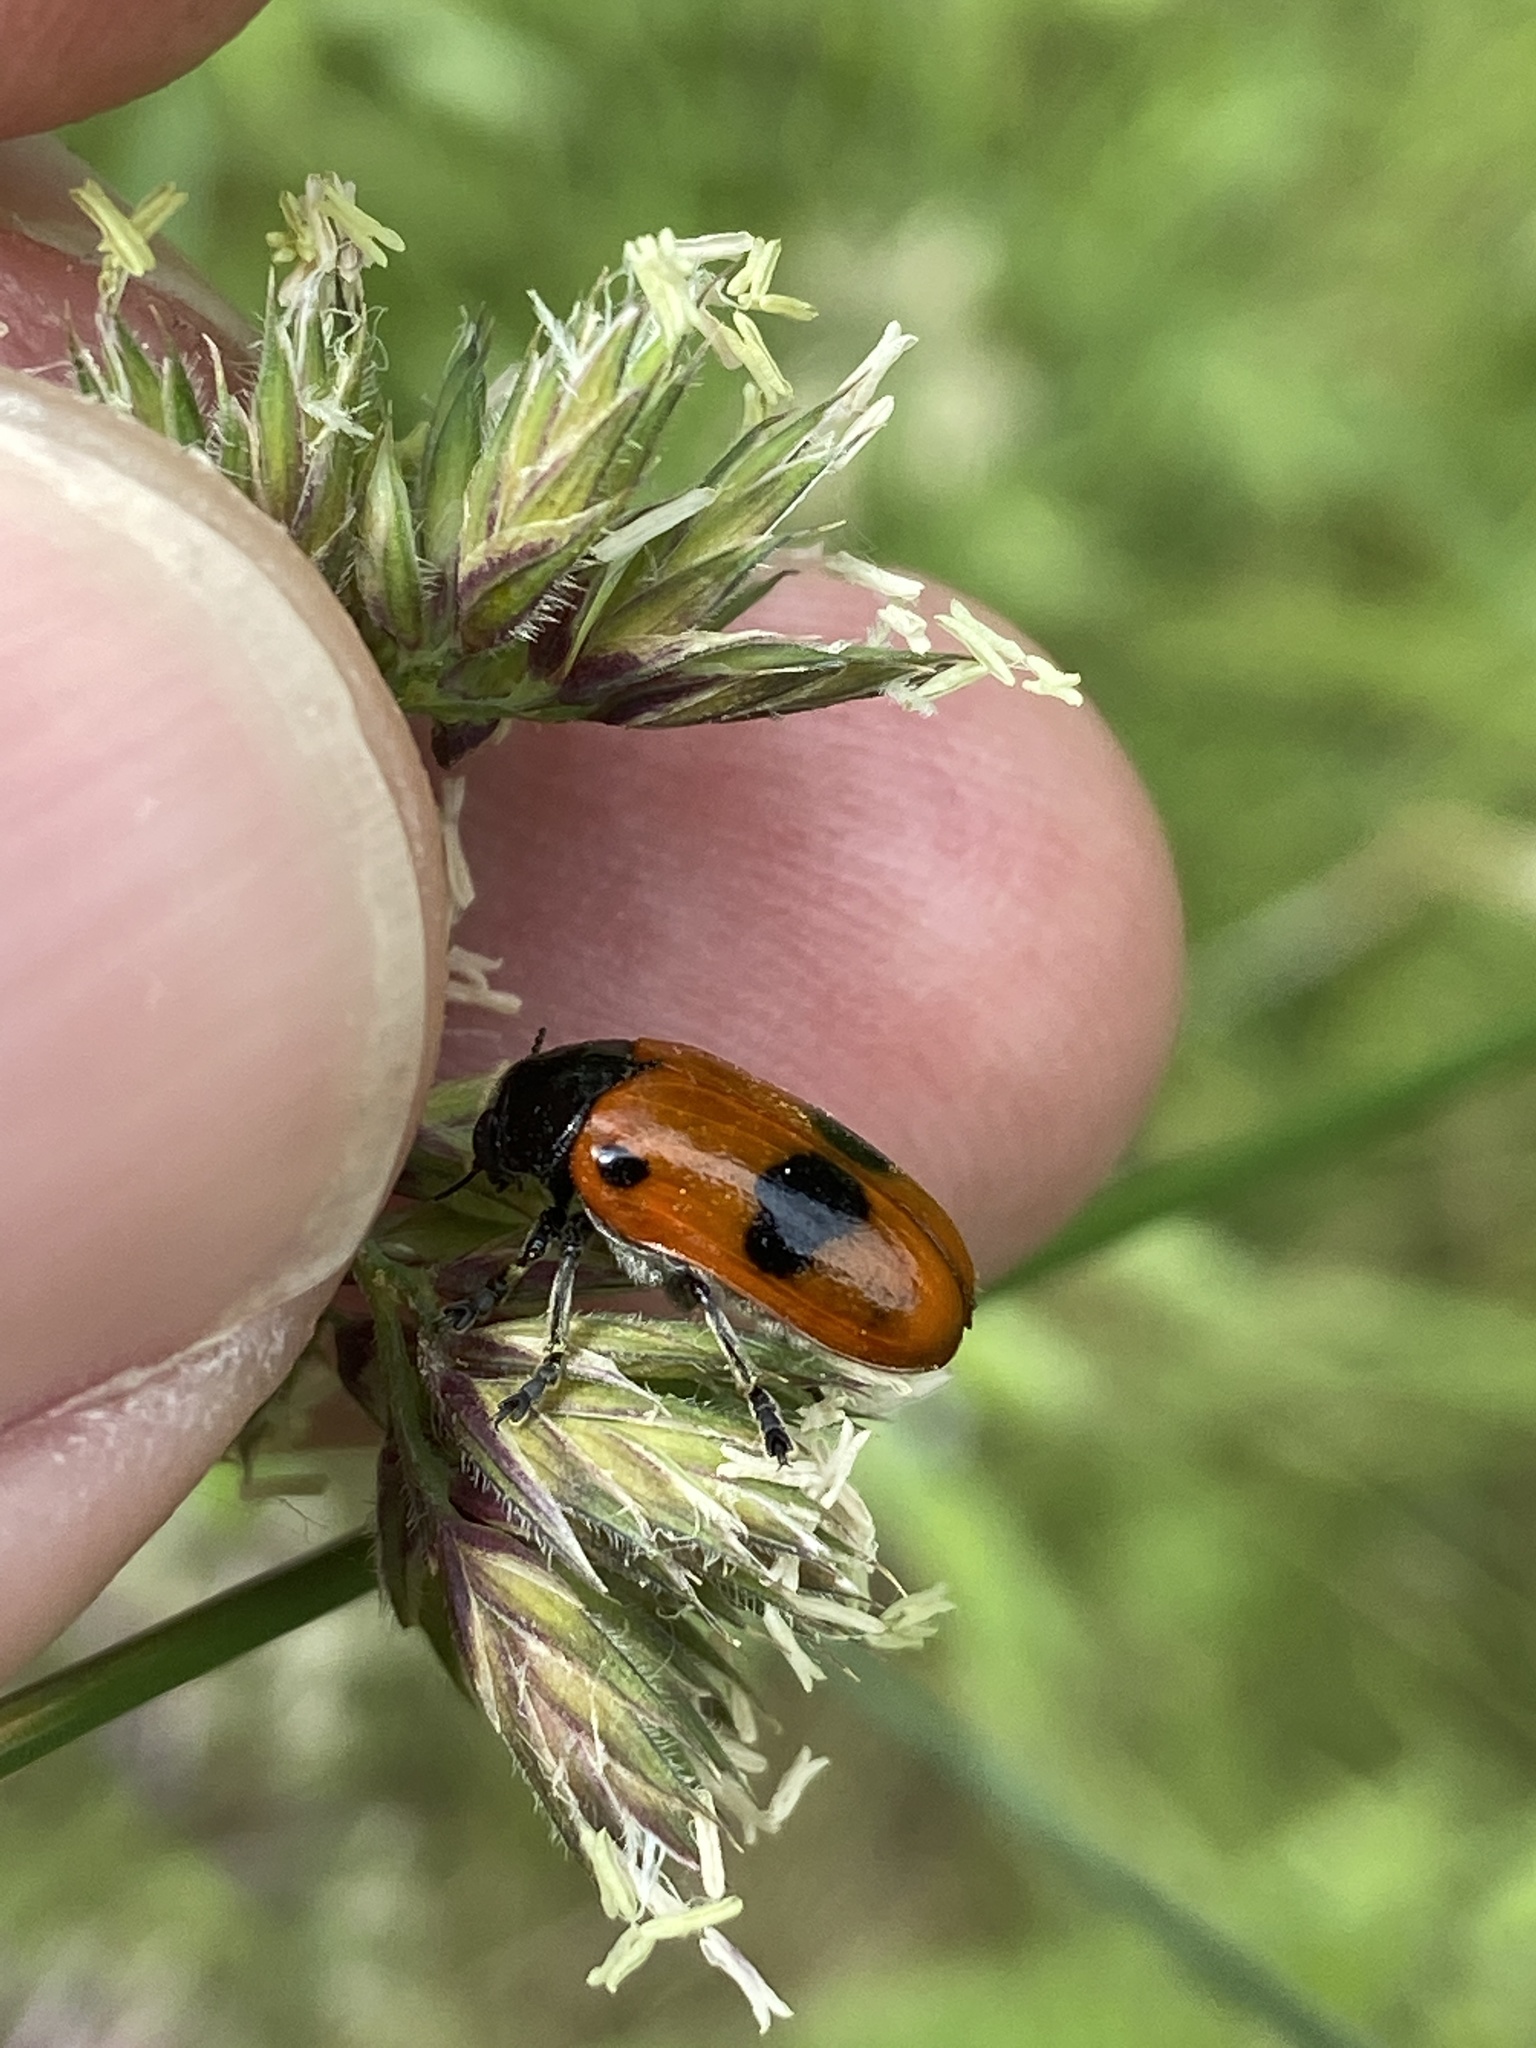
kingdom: Animalia
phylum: Arthropoda
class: Insecta
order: Coleoptera
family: Chrysomelidae
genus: Clytra
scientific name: Clytra laeviuscula
